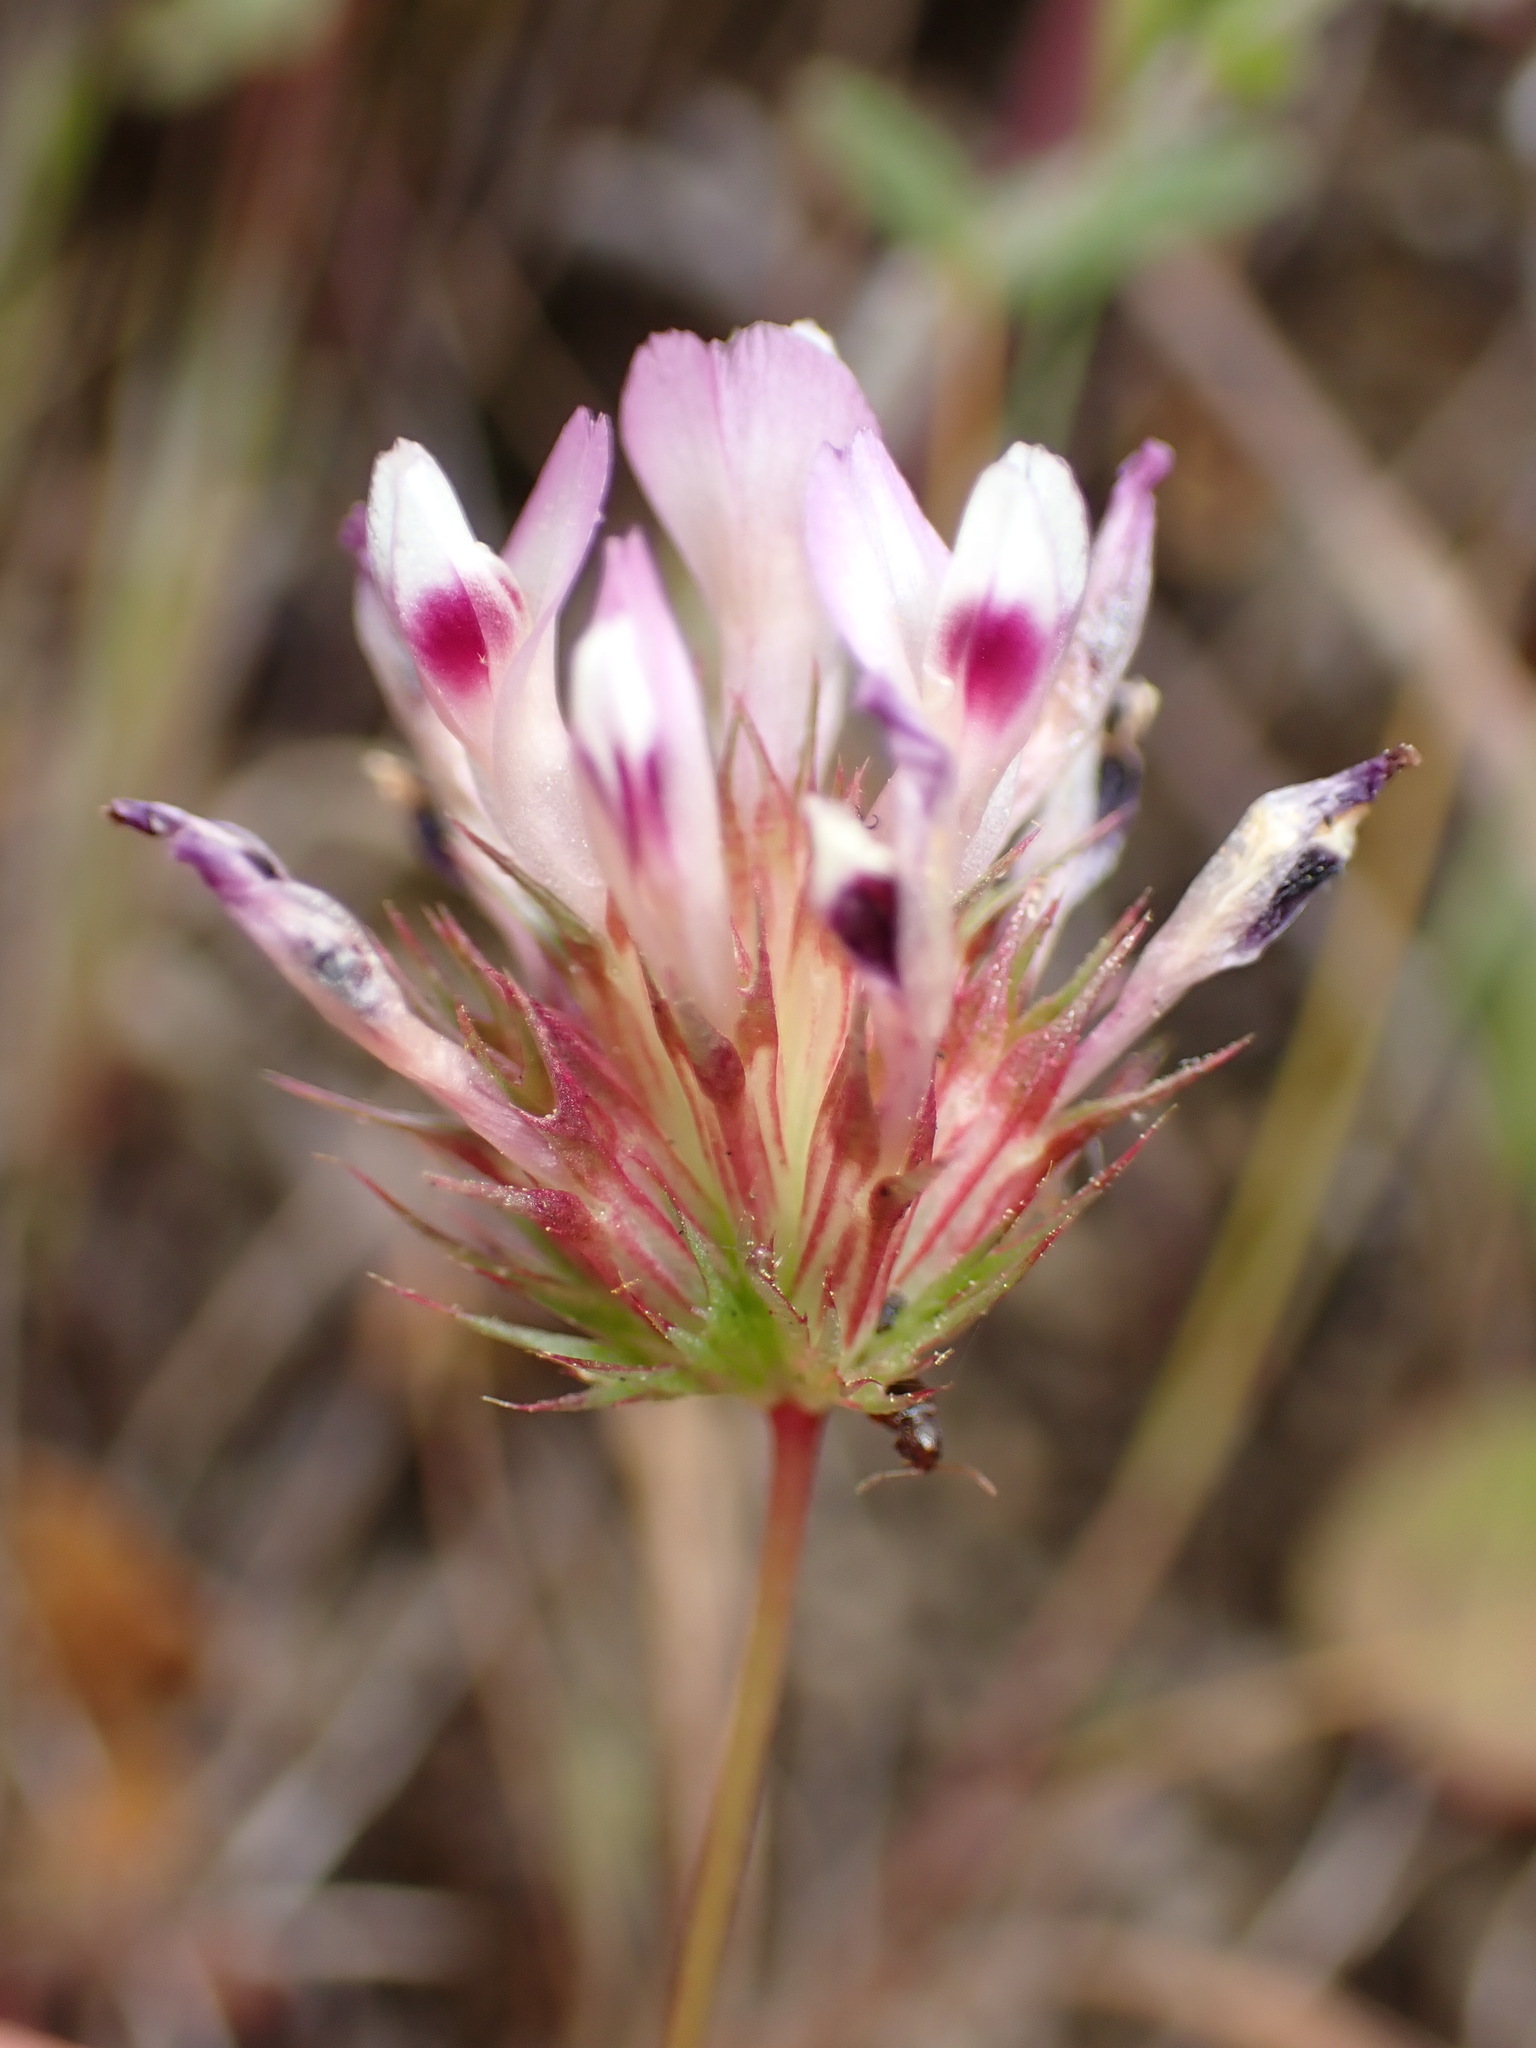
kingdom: Plantae
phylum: Tracheophyta
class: Magnoliopsida
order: Fabales
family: Fabaceae
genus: Trifolium
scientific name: Trifolium willdenovii
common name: Tomcat clover
